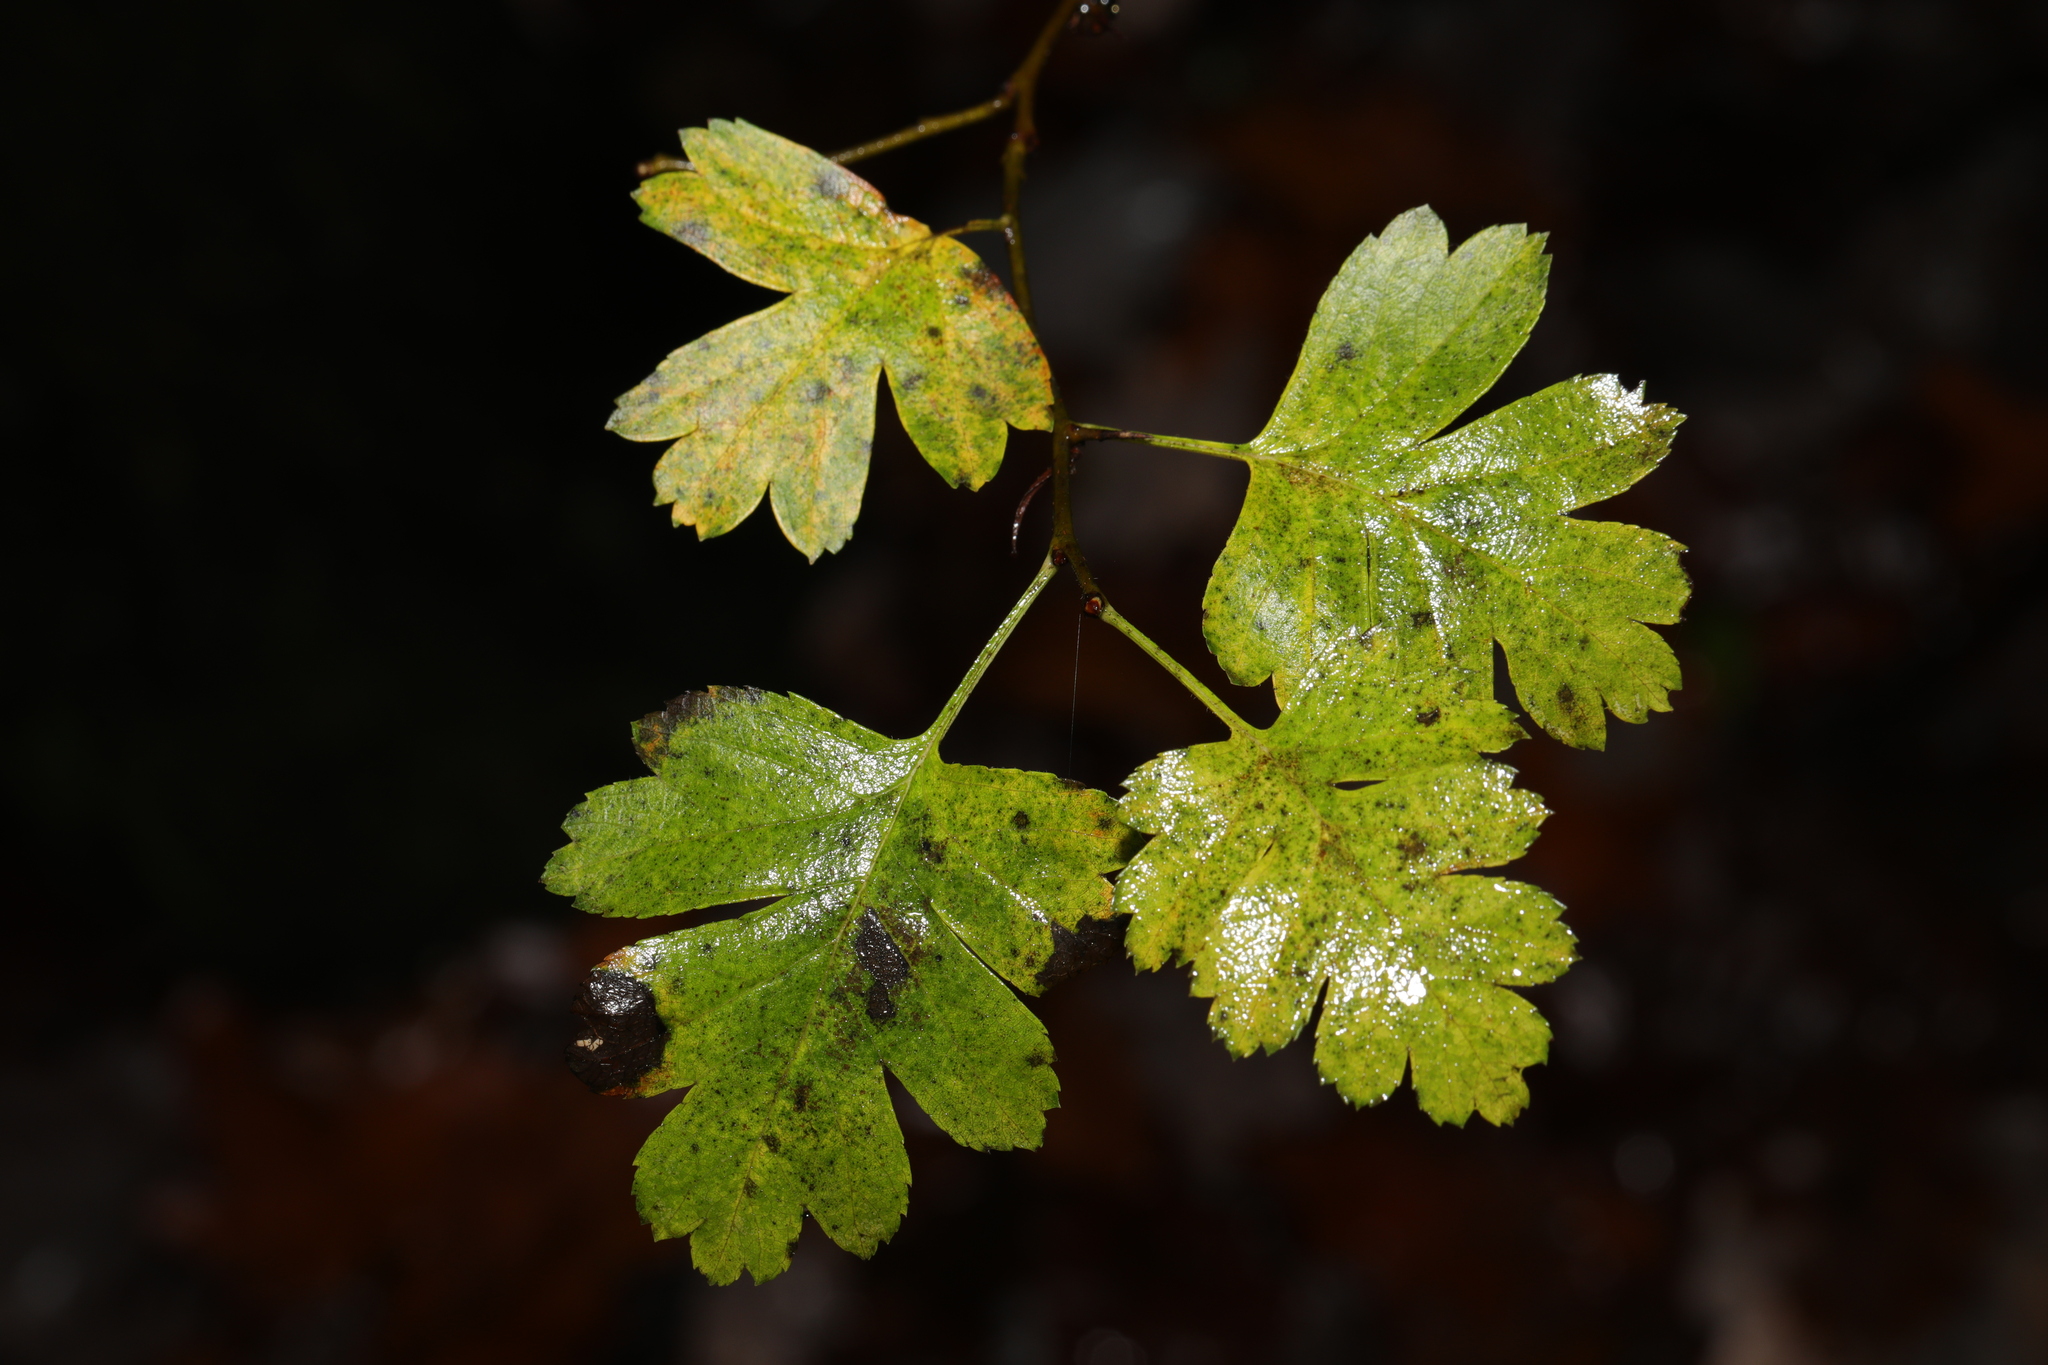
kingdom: Plantae
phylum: Tracheophyta
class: Magnoliopsida
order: Rosales
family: Rosaceae
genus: Crataegus
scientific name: Crataegus monogyna
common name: Hawthorn
